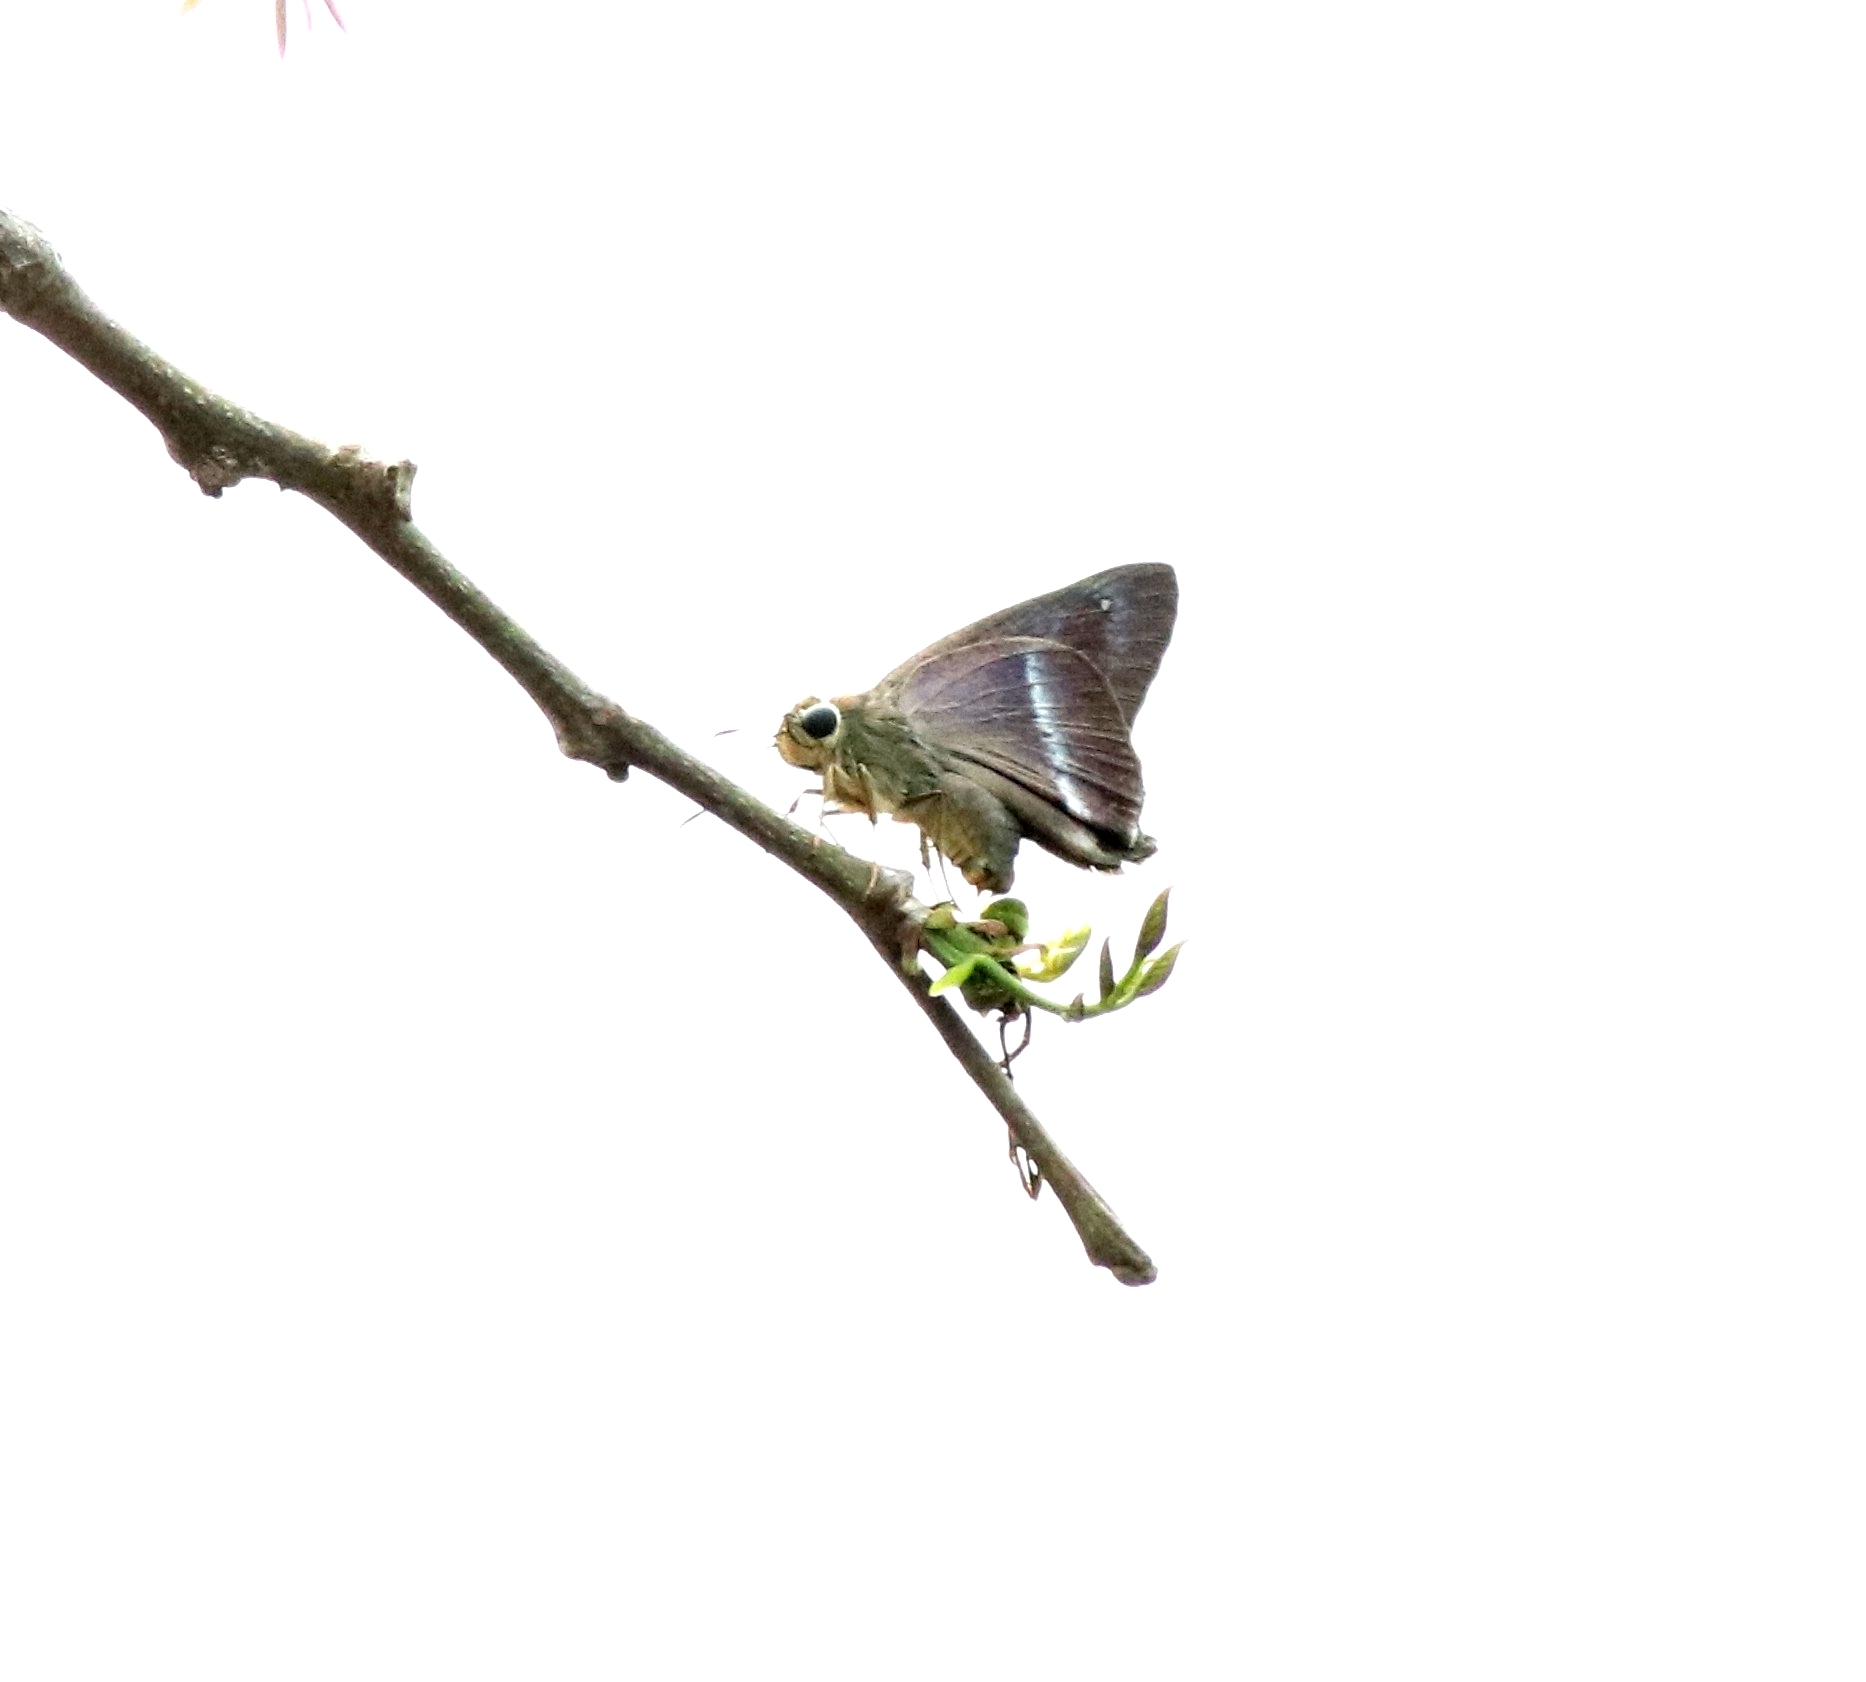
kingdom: Animalia
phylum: Arthropoda
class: Insecta
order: Lepidoptera
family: Hesperiidae
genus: Hasora
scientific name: Hasora chromus
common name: Common banded awl
